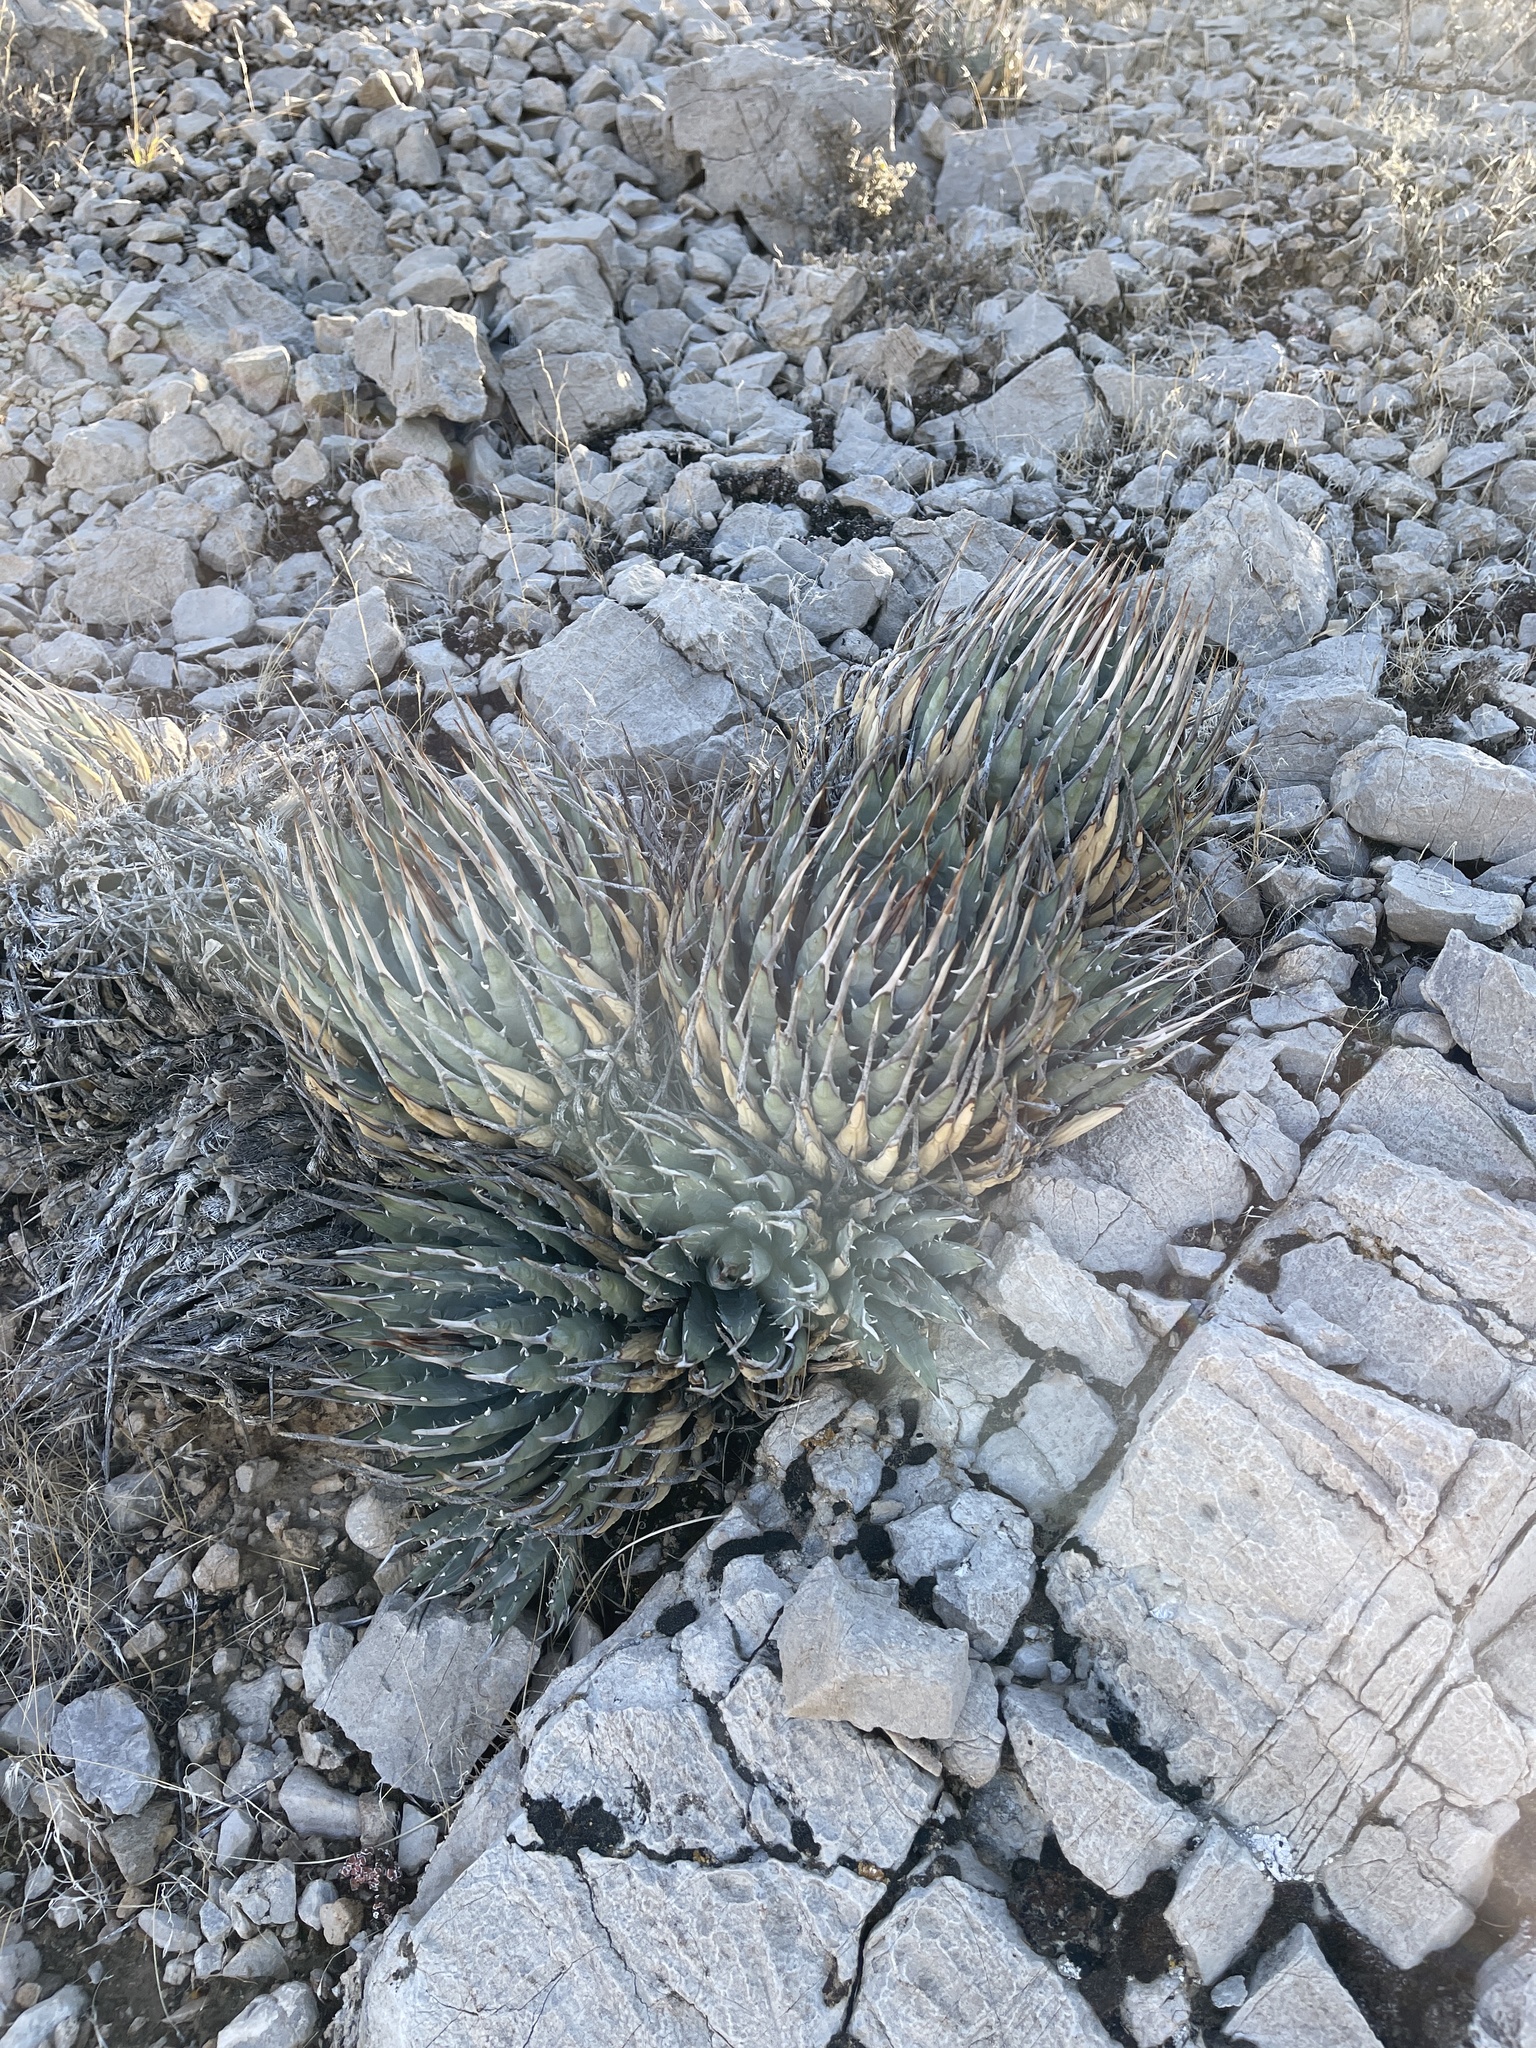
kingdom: Plantae
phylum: Tracheophyta
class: Liliopsida
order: Asparagales
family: Asparagaceae
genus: Agave
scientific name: Agave utahensis
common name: Utah agave
